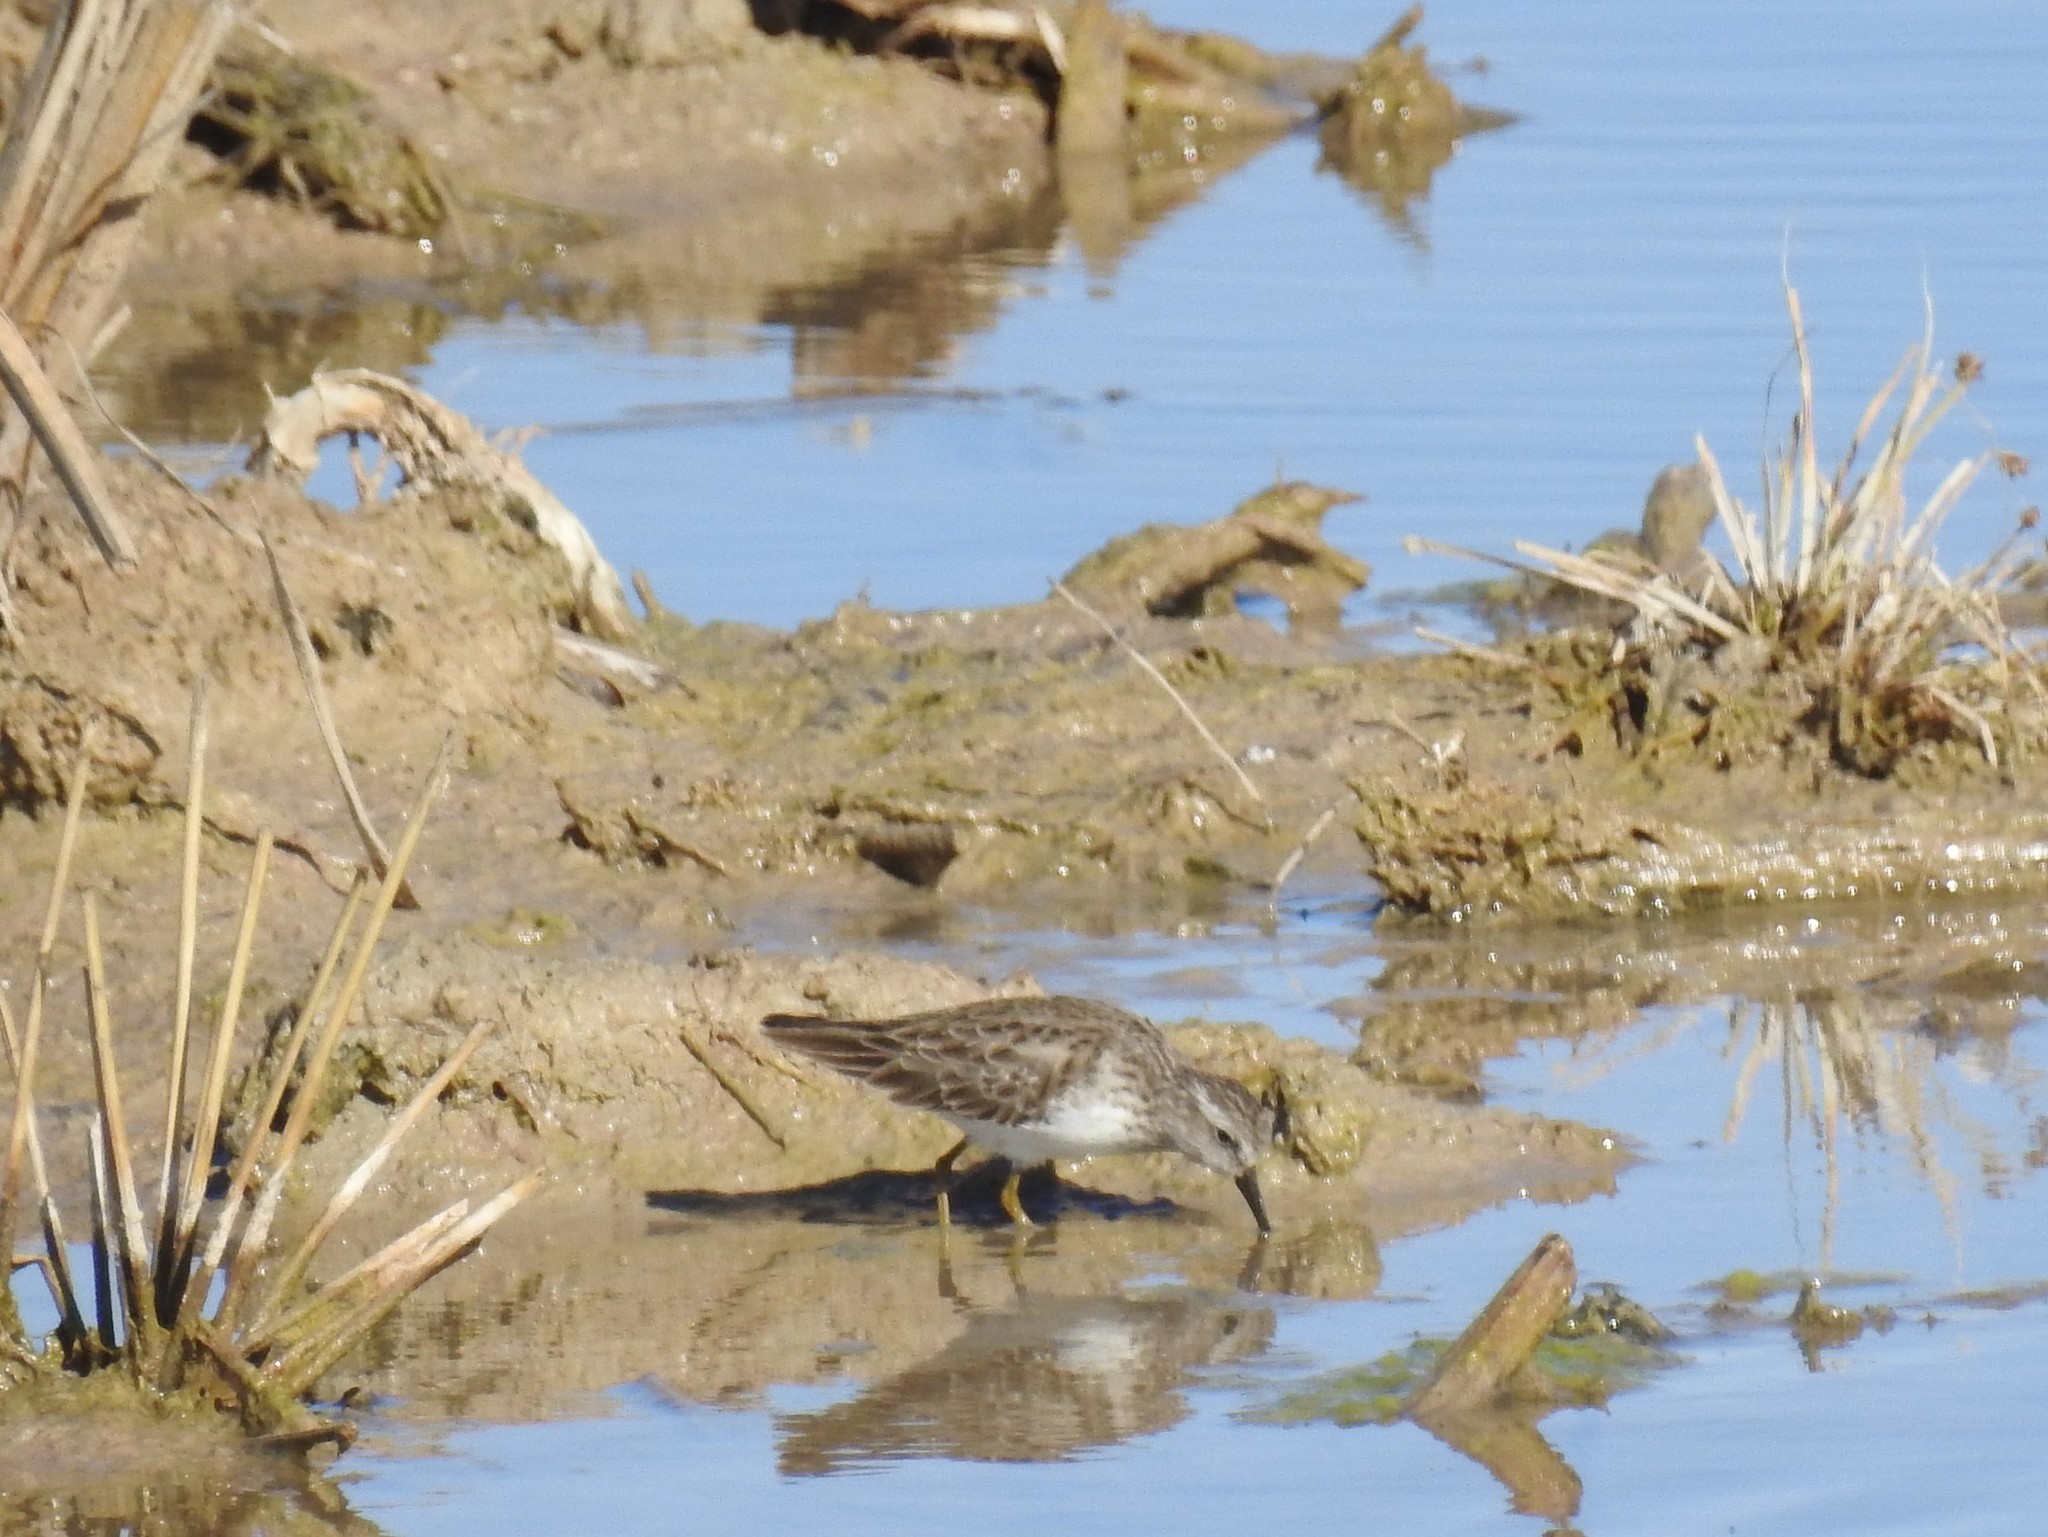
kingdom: Animalia
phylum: Chordata
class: Aves
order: Charadriiformes
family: Scolopacidae
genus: Calidris
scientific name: Calidris minutilla
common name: Least sandpiper
